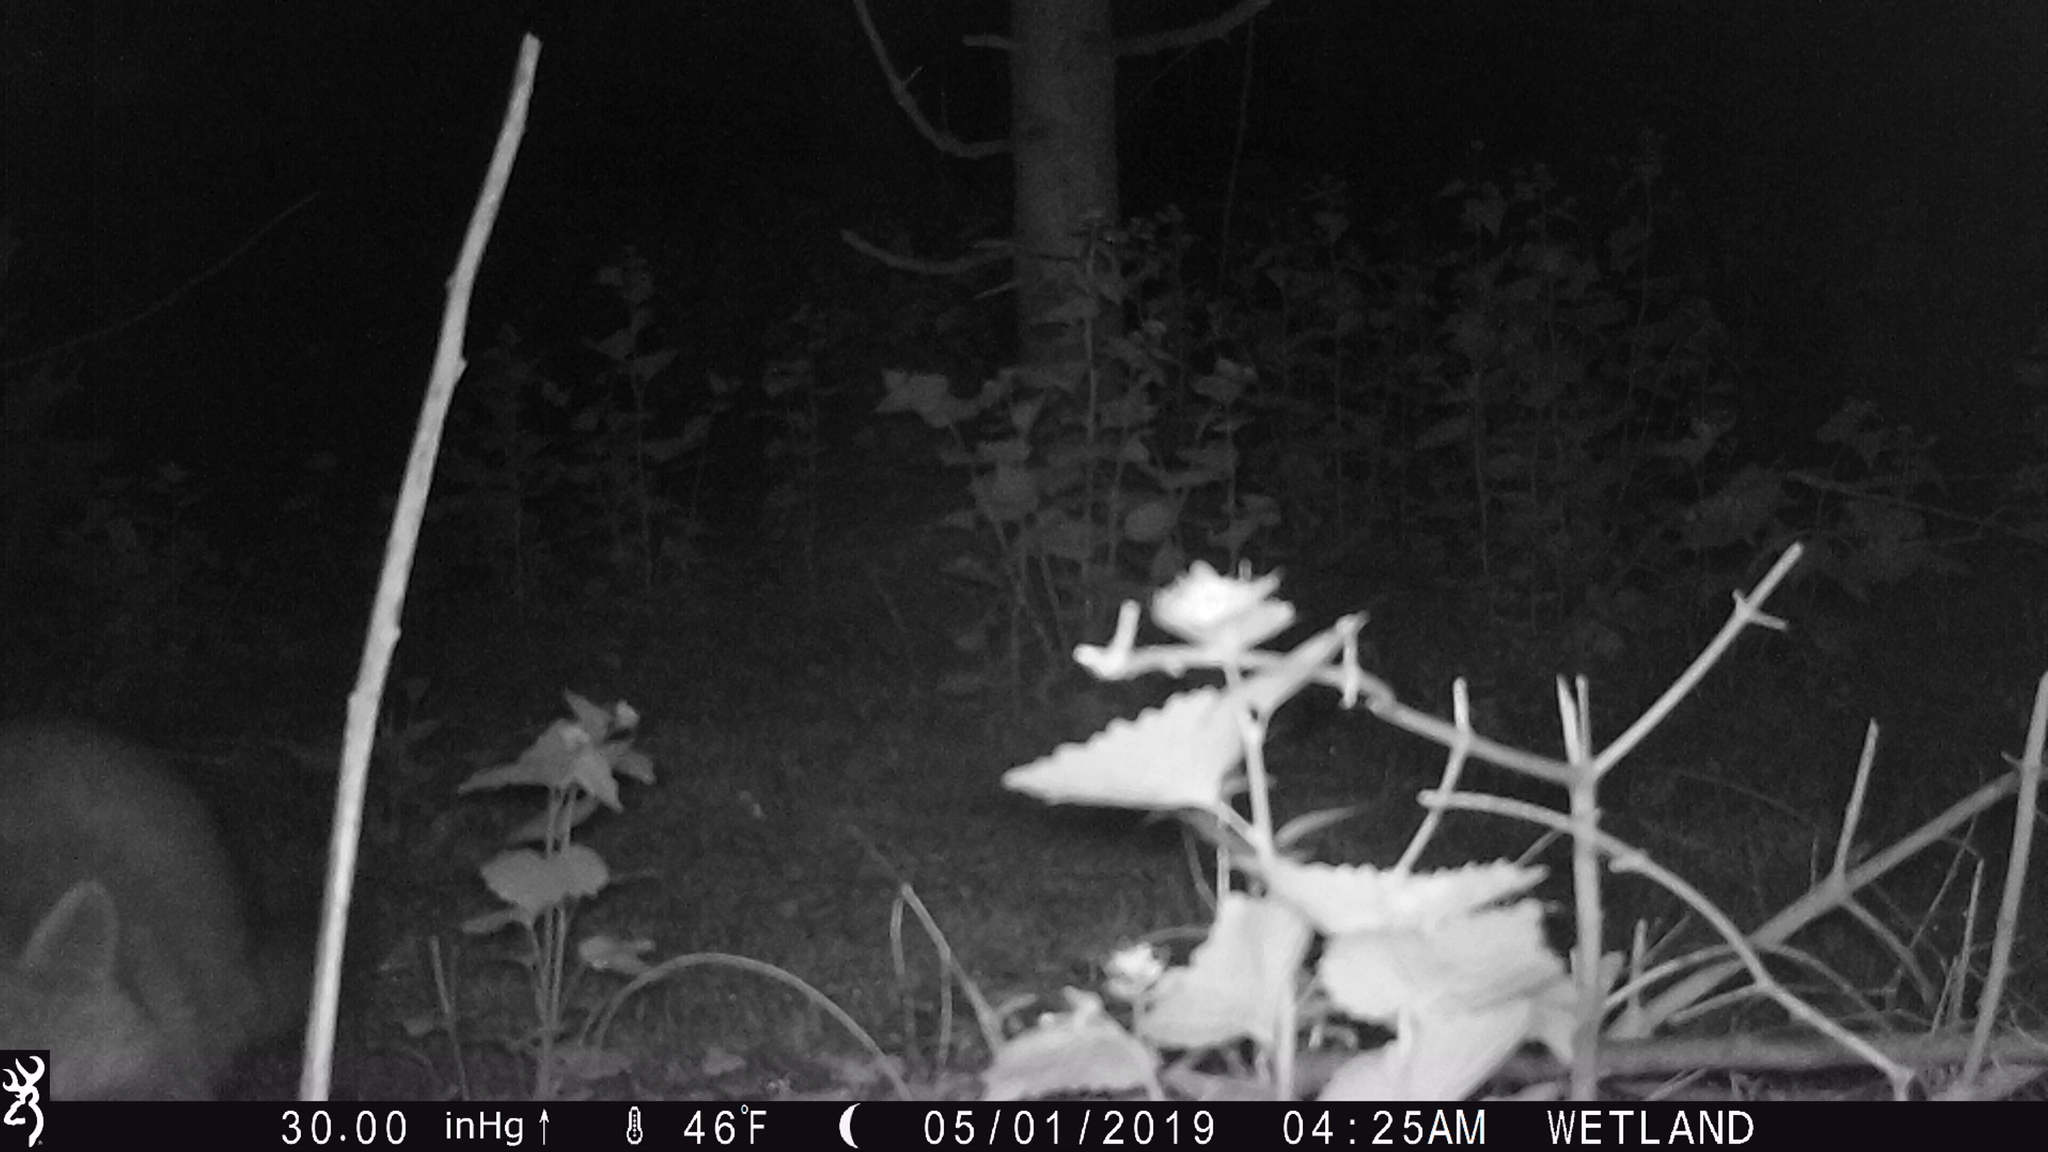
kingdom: Animalia
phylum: Chordata
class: Mammalia
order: Carnivora
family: Procyonidae
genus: Procyon
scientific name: Procyon lotor
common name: Raccoon
